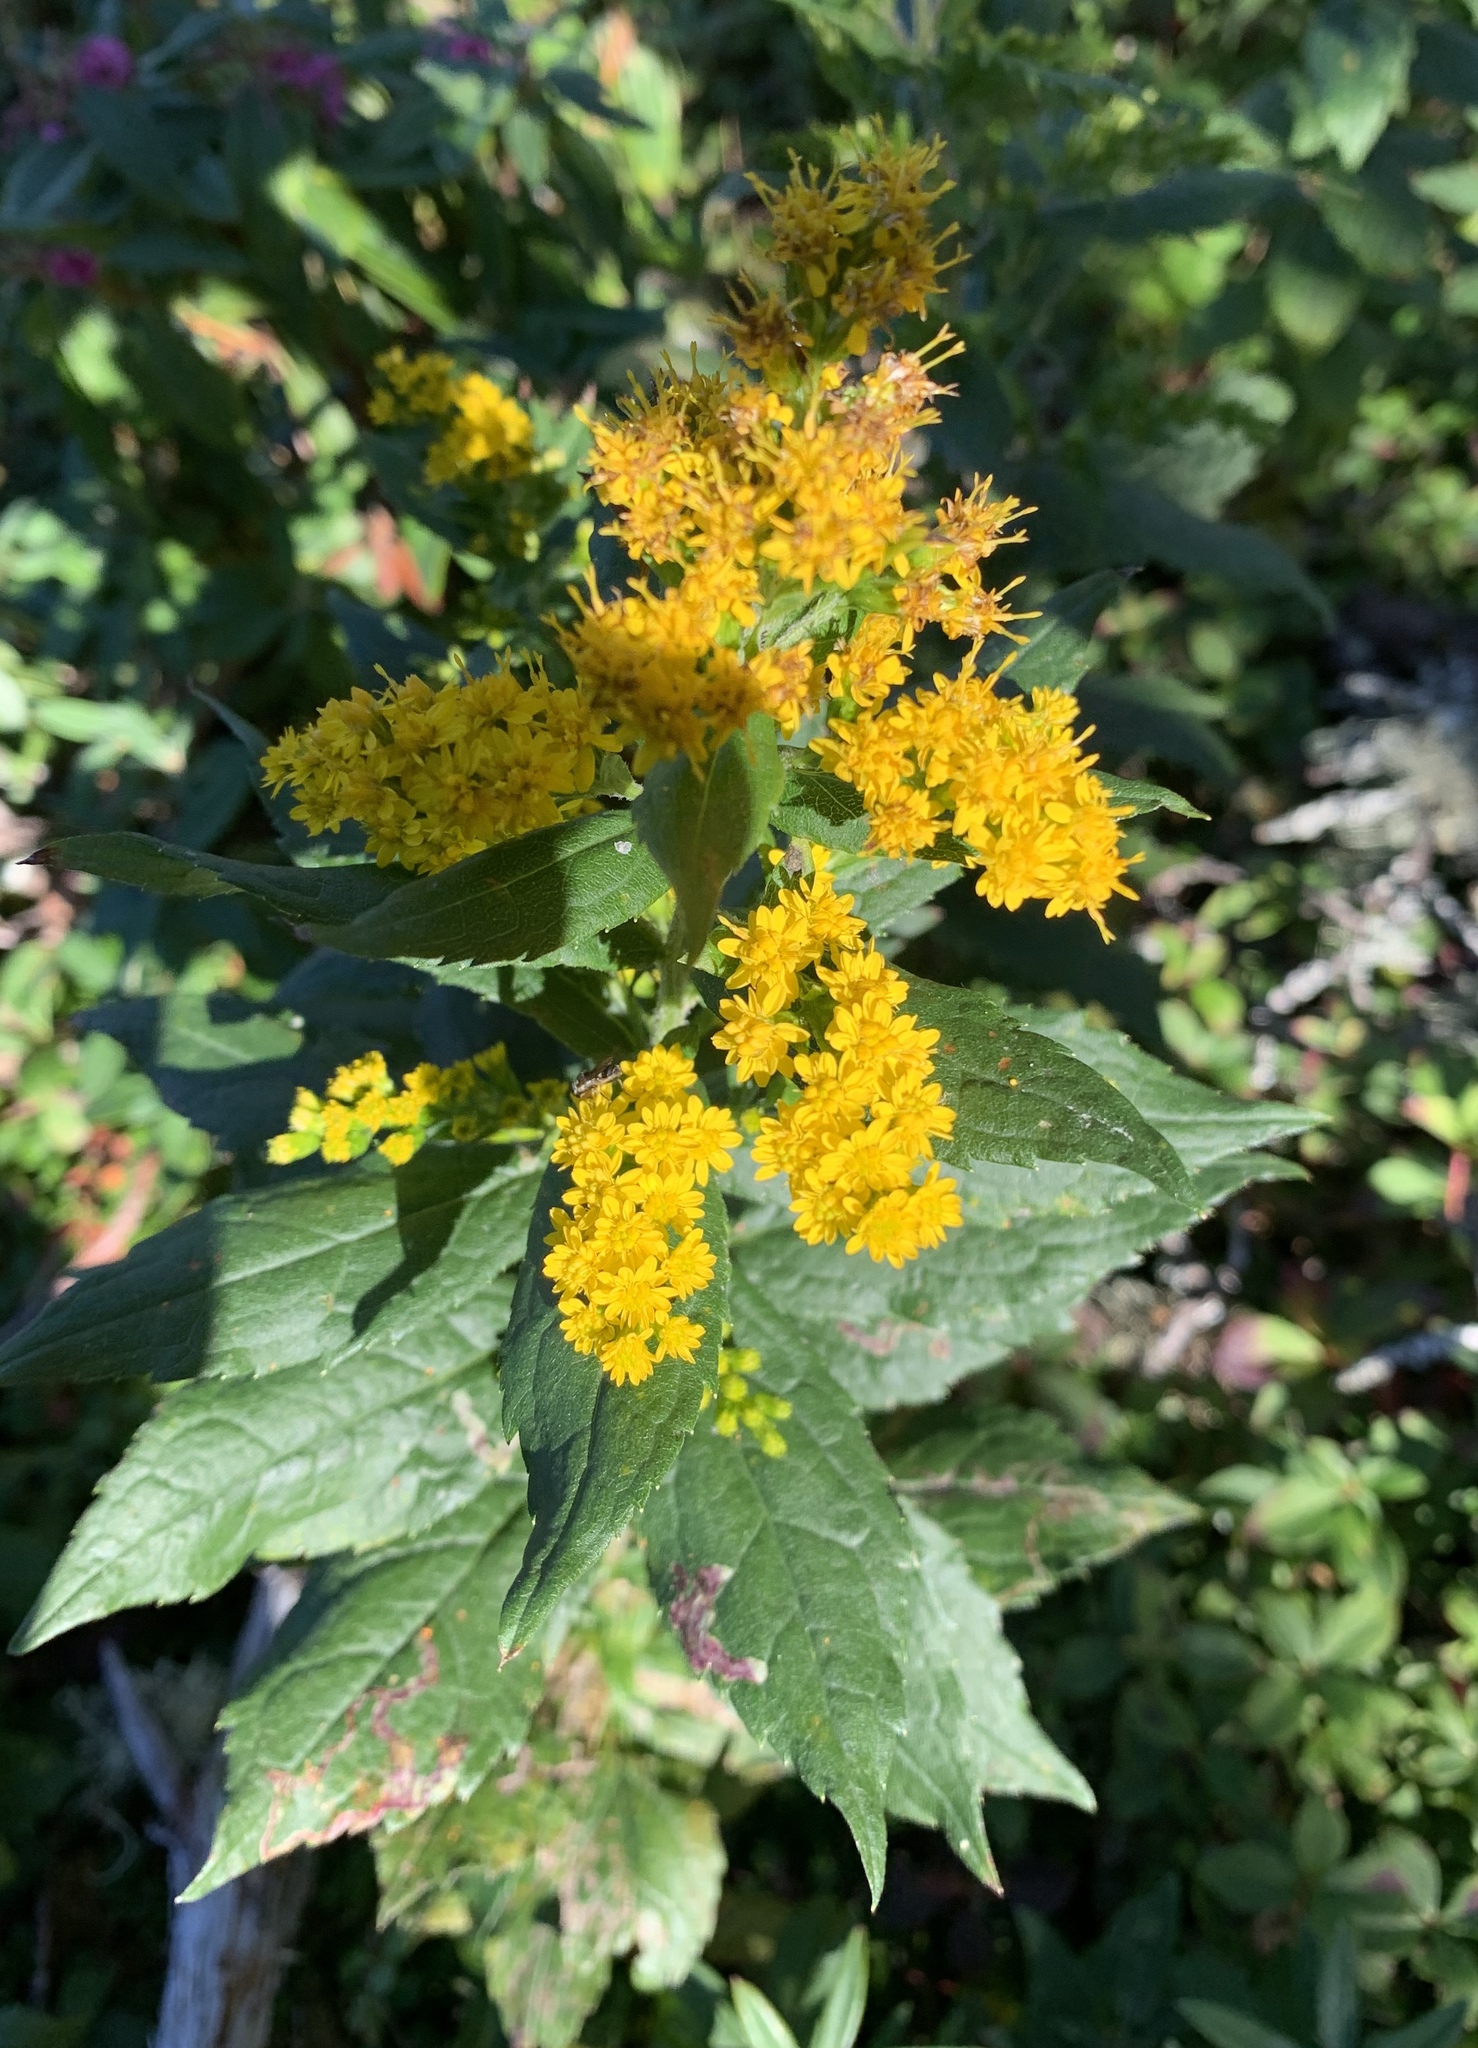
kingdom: Plantae
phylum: Tracheophyta
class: Magnoliopsida
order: Asterales
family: Asteraceae
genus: Solidago
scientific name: Solidago rugosa
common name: Rough-stemmed goldenrod
